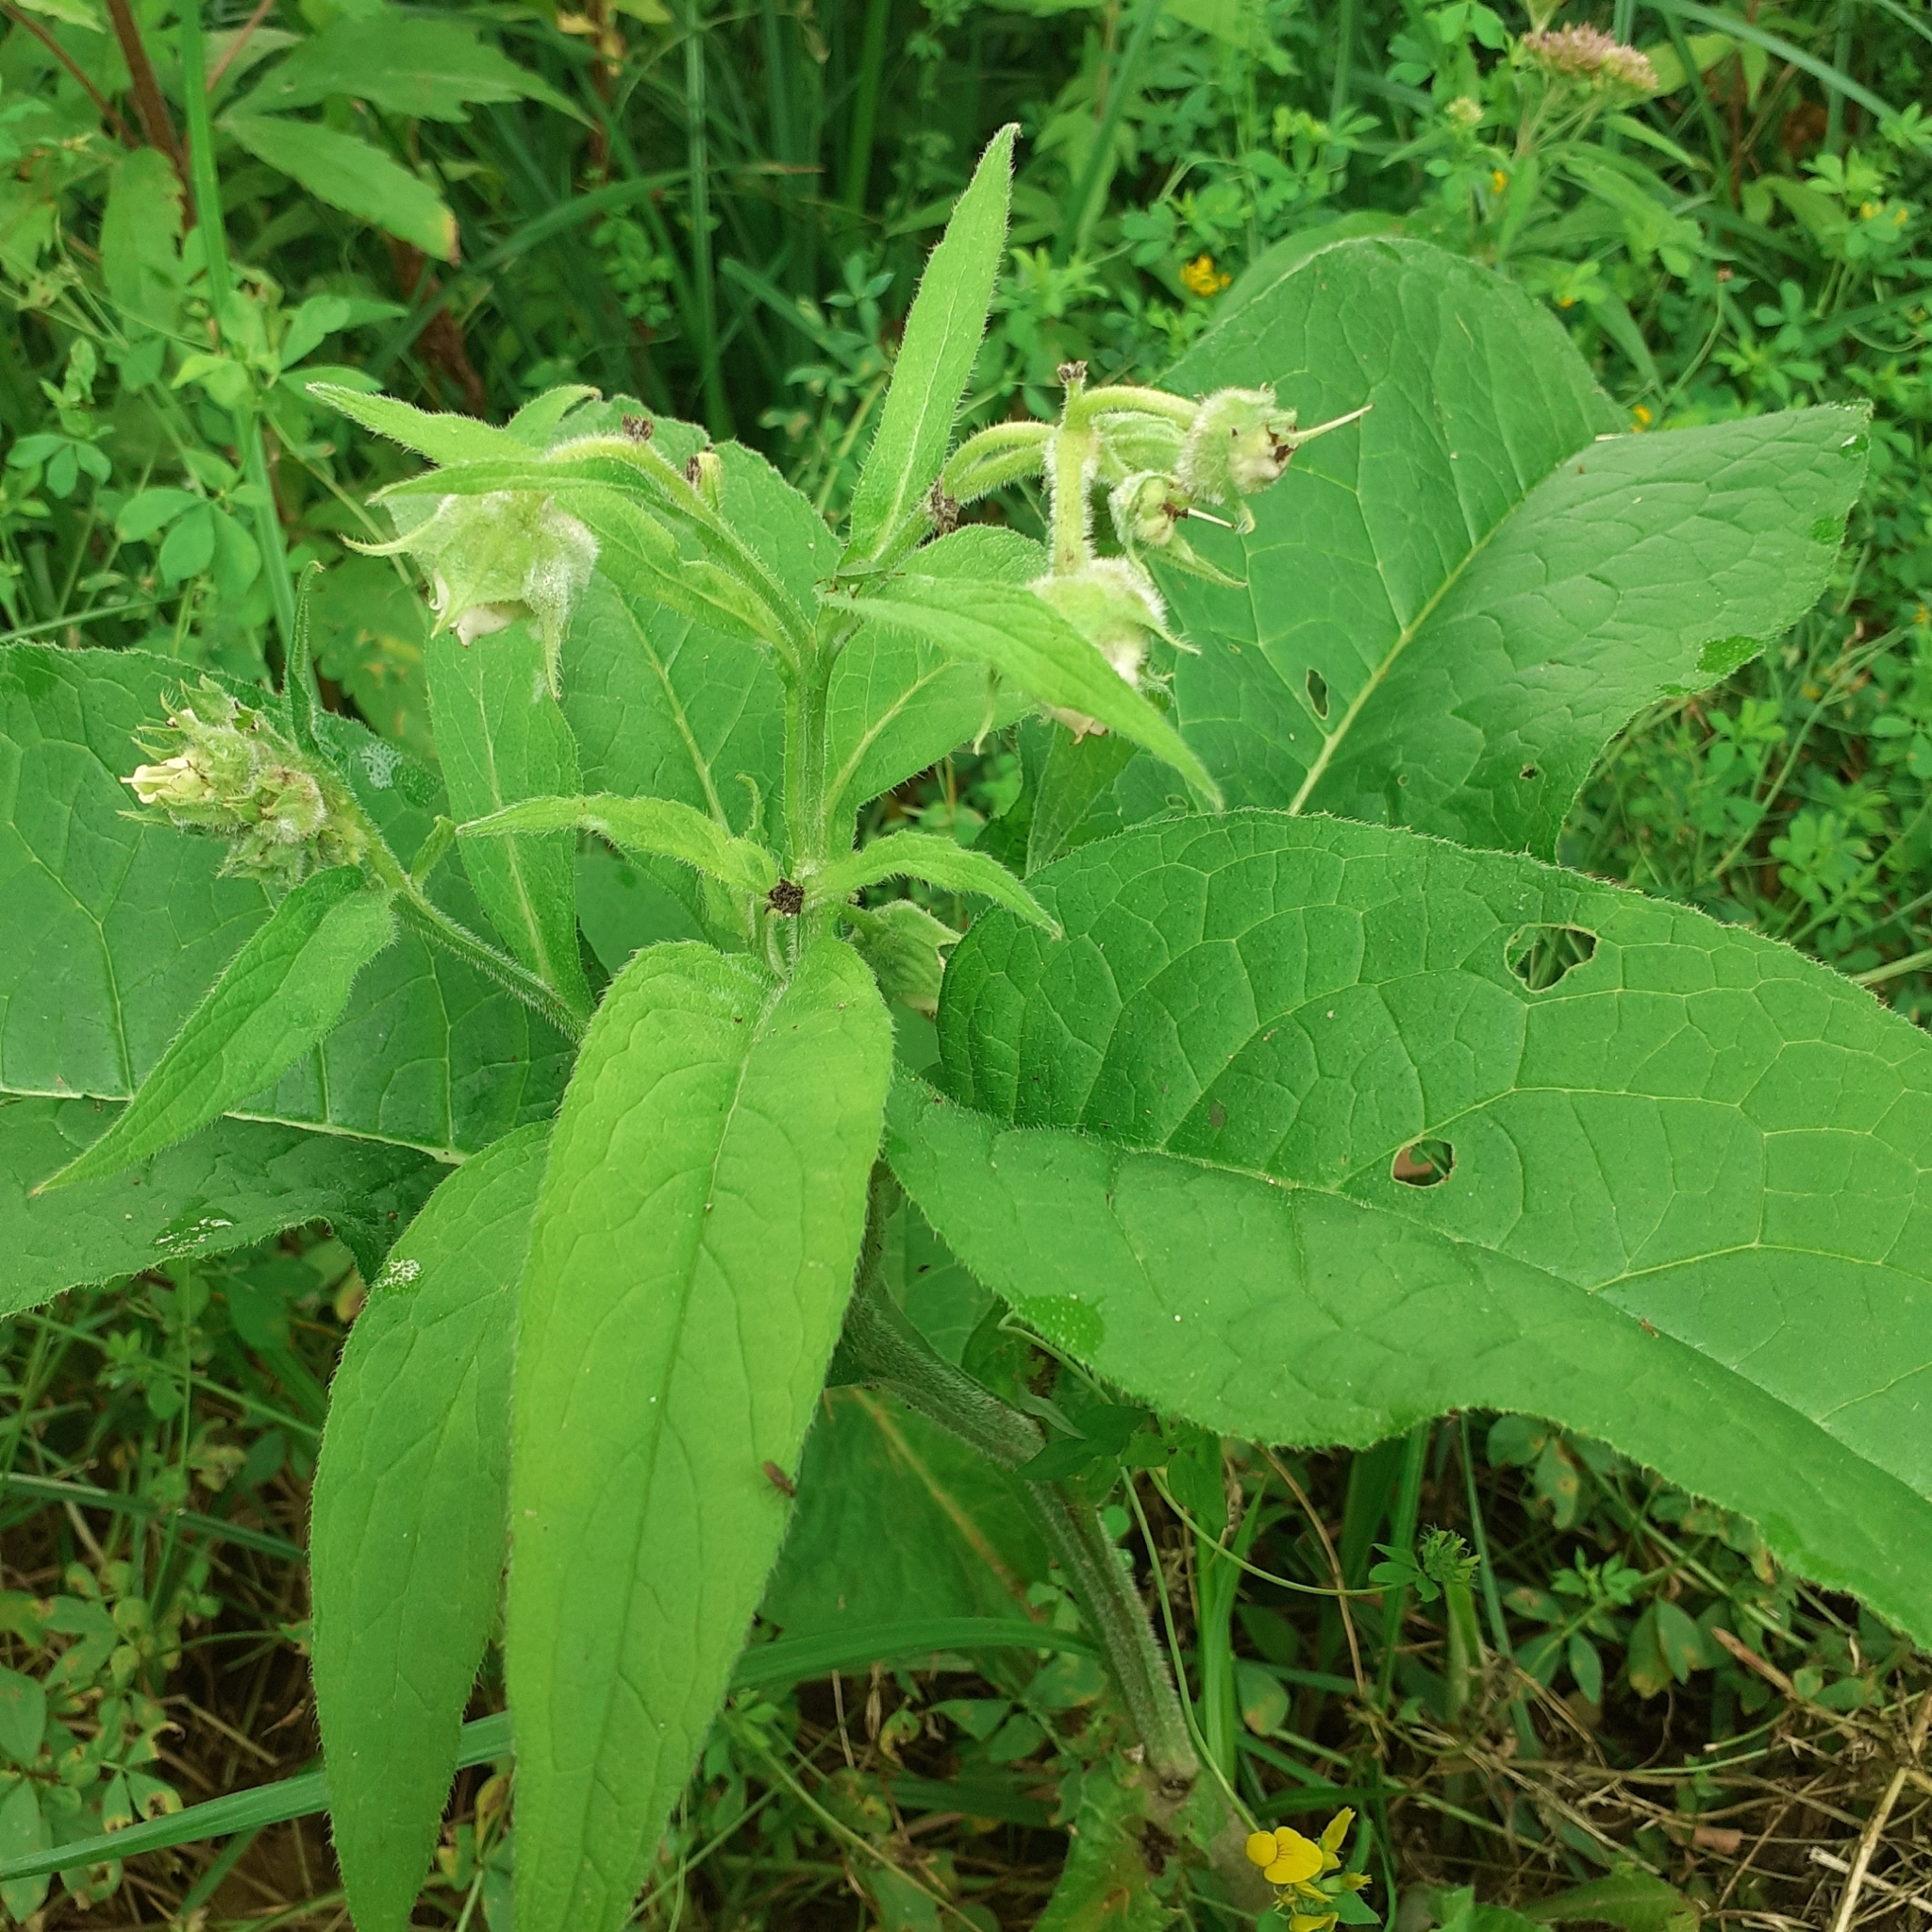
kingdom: Plantae
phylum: Tracheophyta
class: Magnoliopsida
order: Boraginales
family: Boraginaceae
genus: Symphytum
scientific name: Symphytum officinale
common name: Common comfrey
